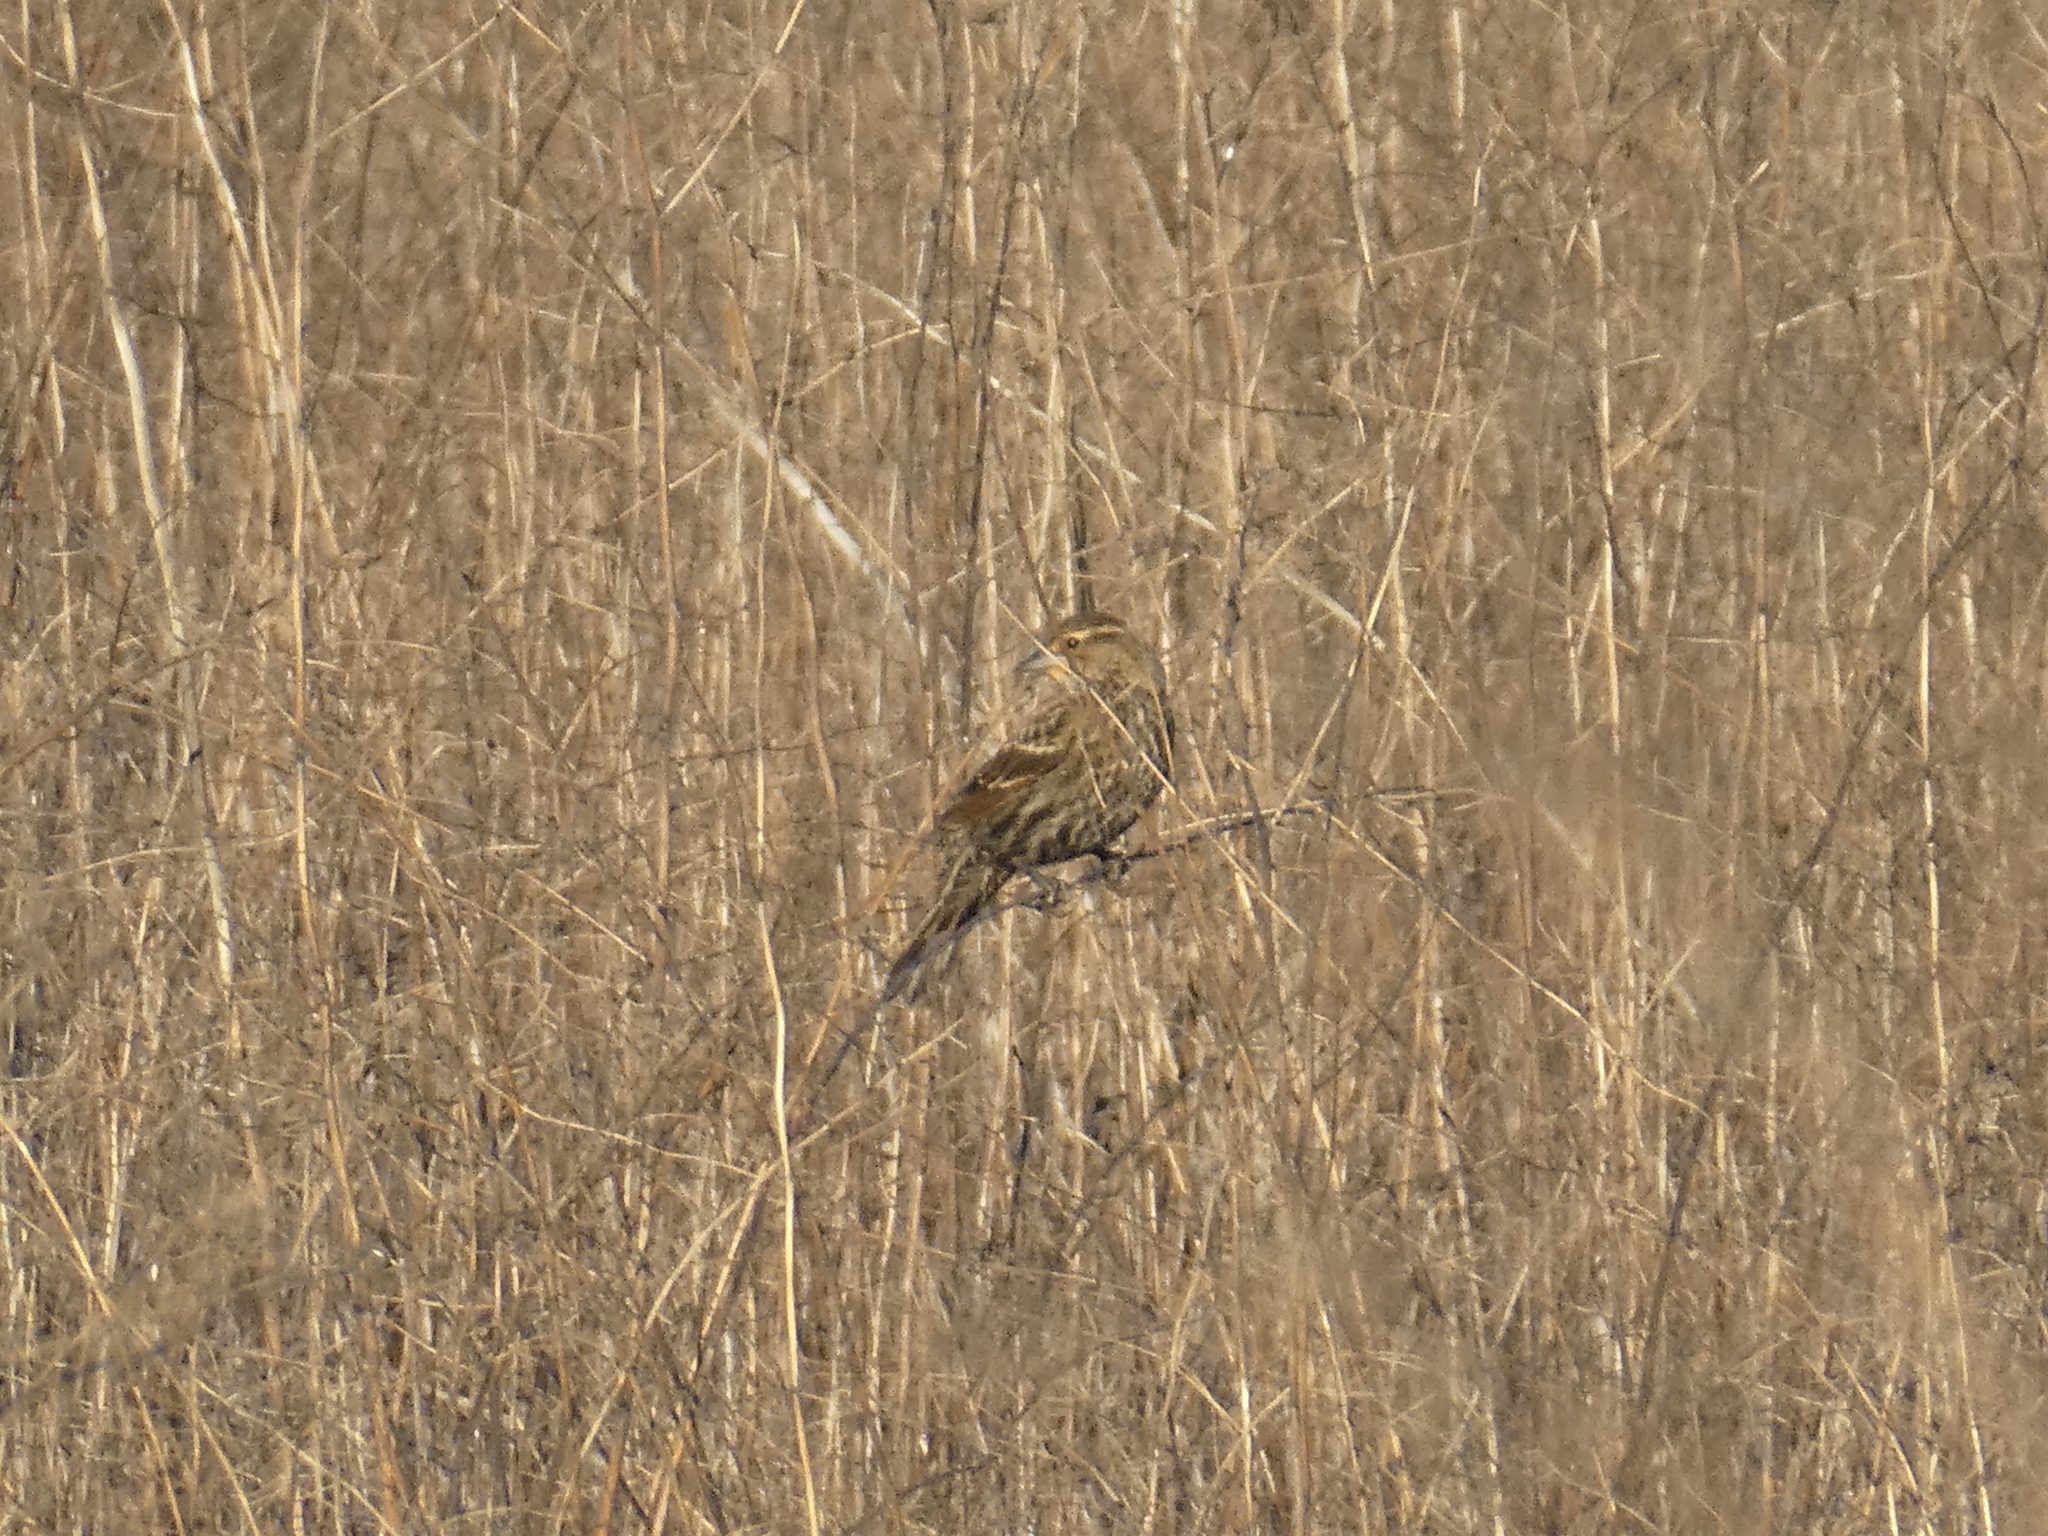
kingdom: Animalia
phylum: Chordata
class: Aves
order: Passeriformes
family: Icteridae
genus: Agelaius
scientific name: Agelaius phoeniceus
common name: Red-winged blackbird
